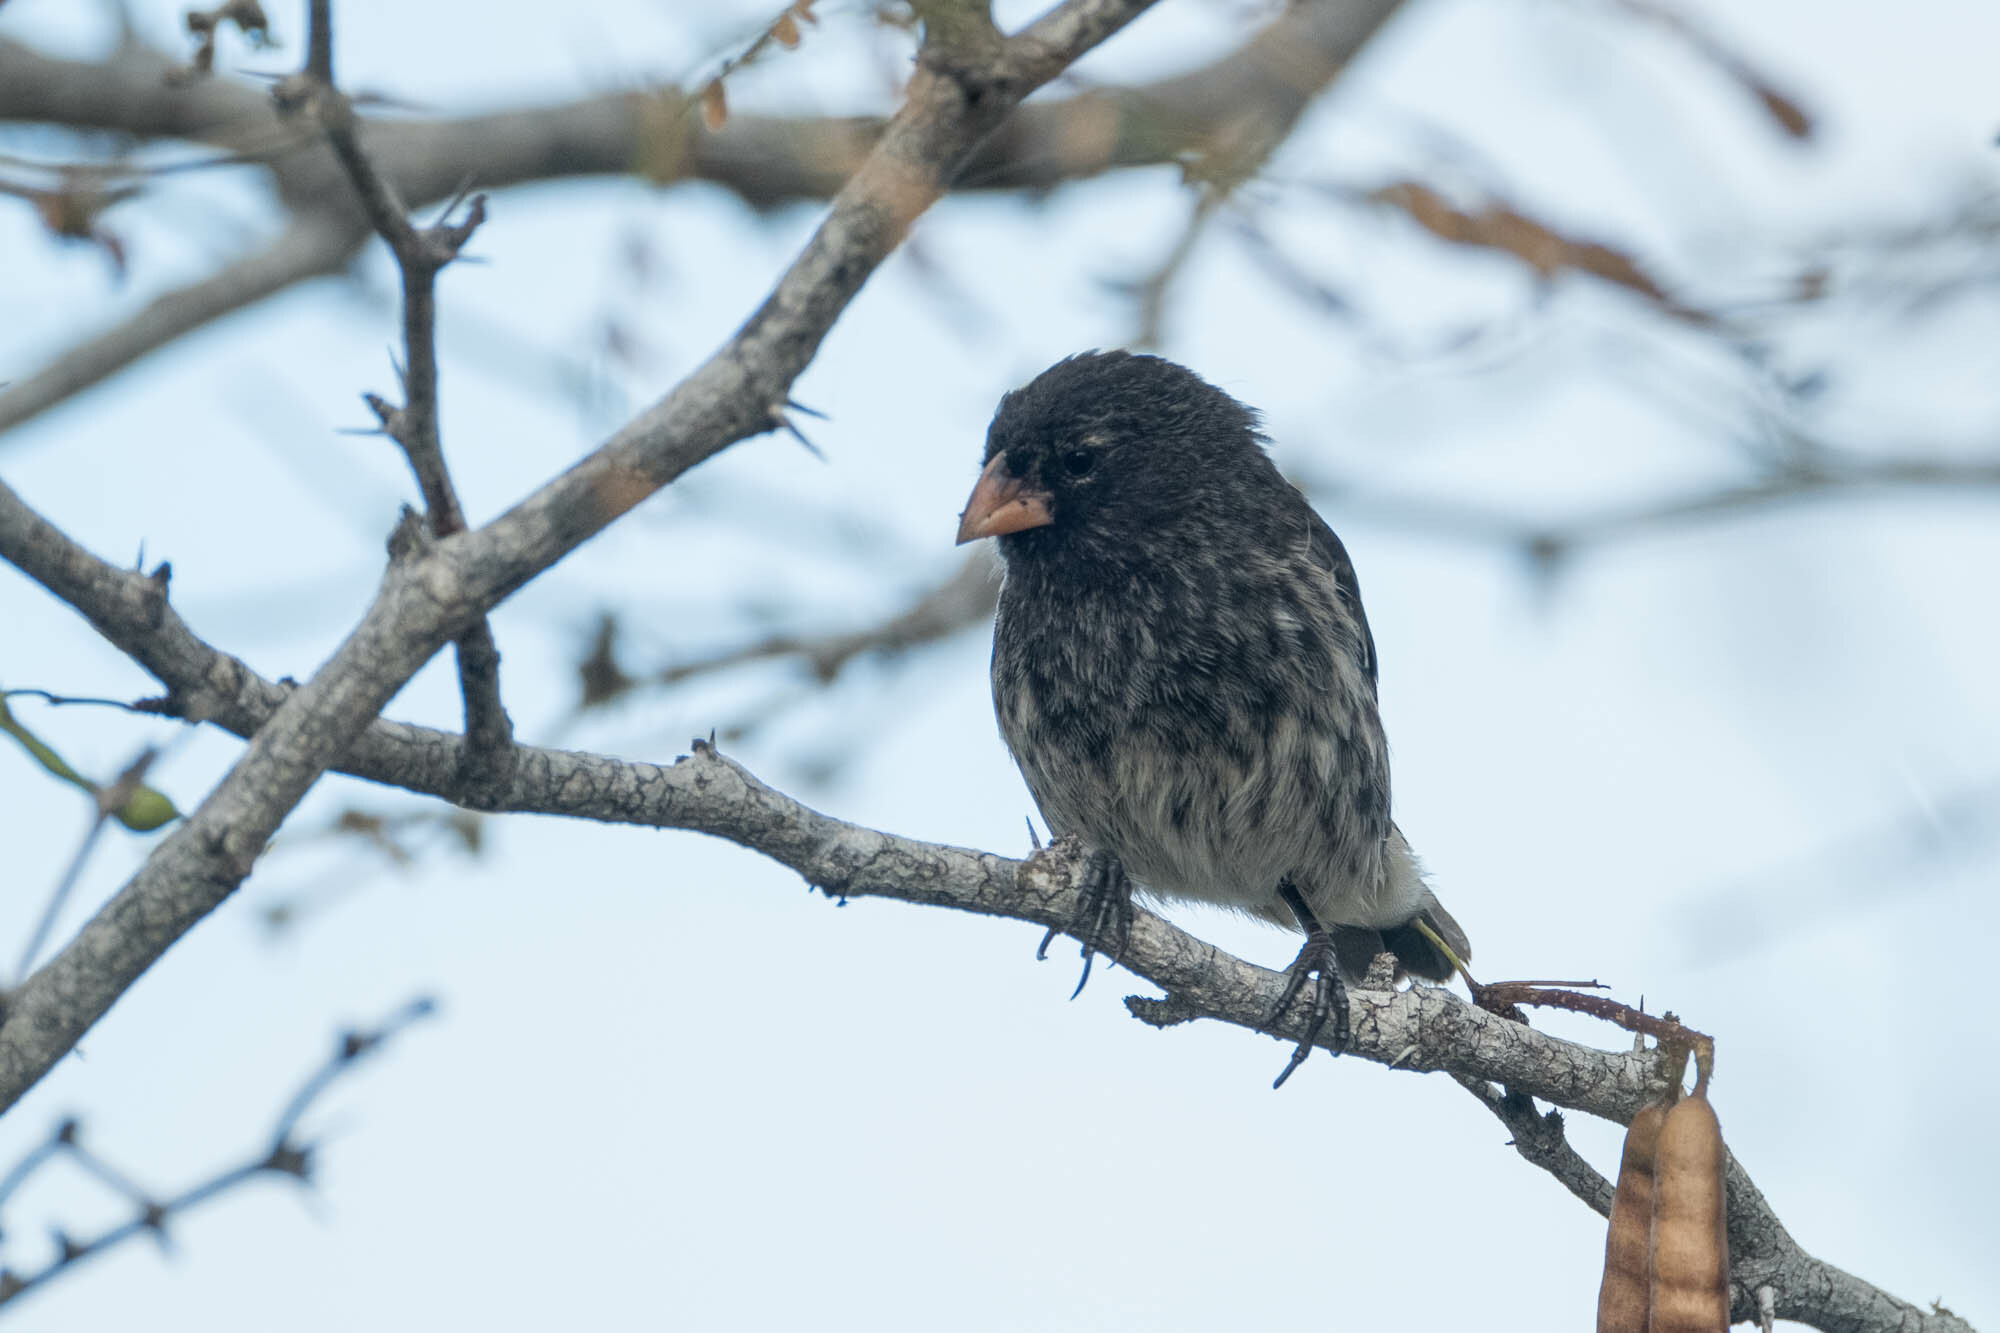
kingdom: Animalia
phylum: Chordata
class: Aves
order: Passeriformes
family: Thraupidae
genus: Geospiza
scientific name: Geospiza fuliginosa
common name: Small ground finch
